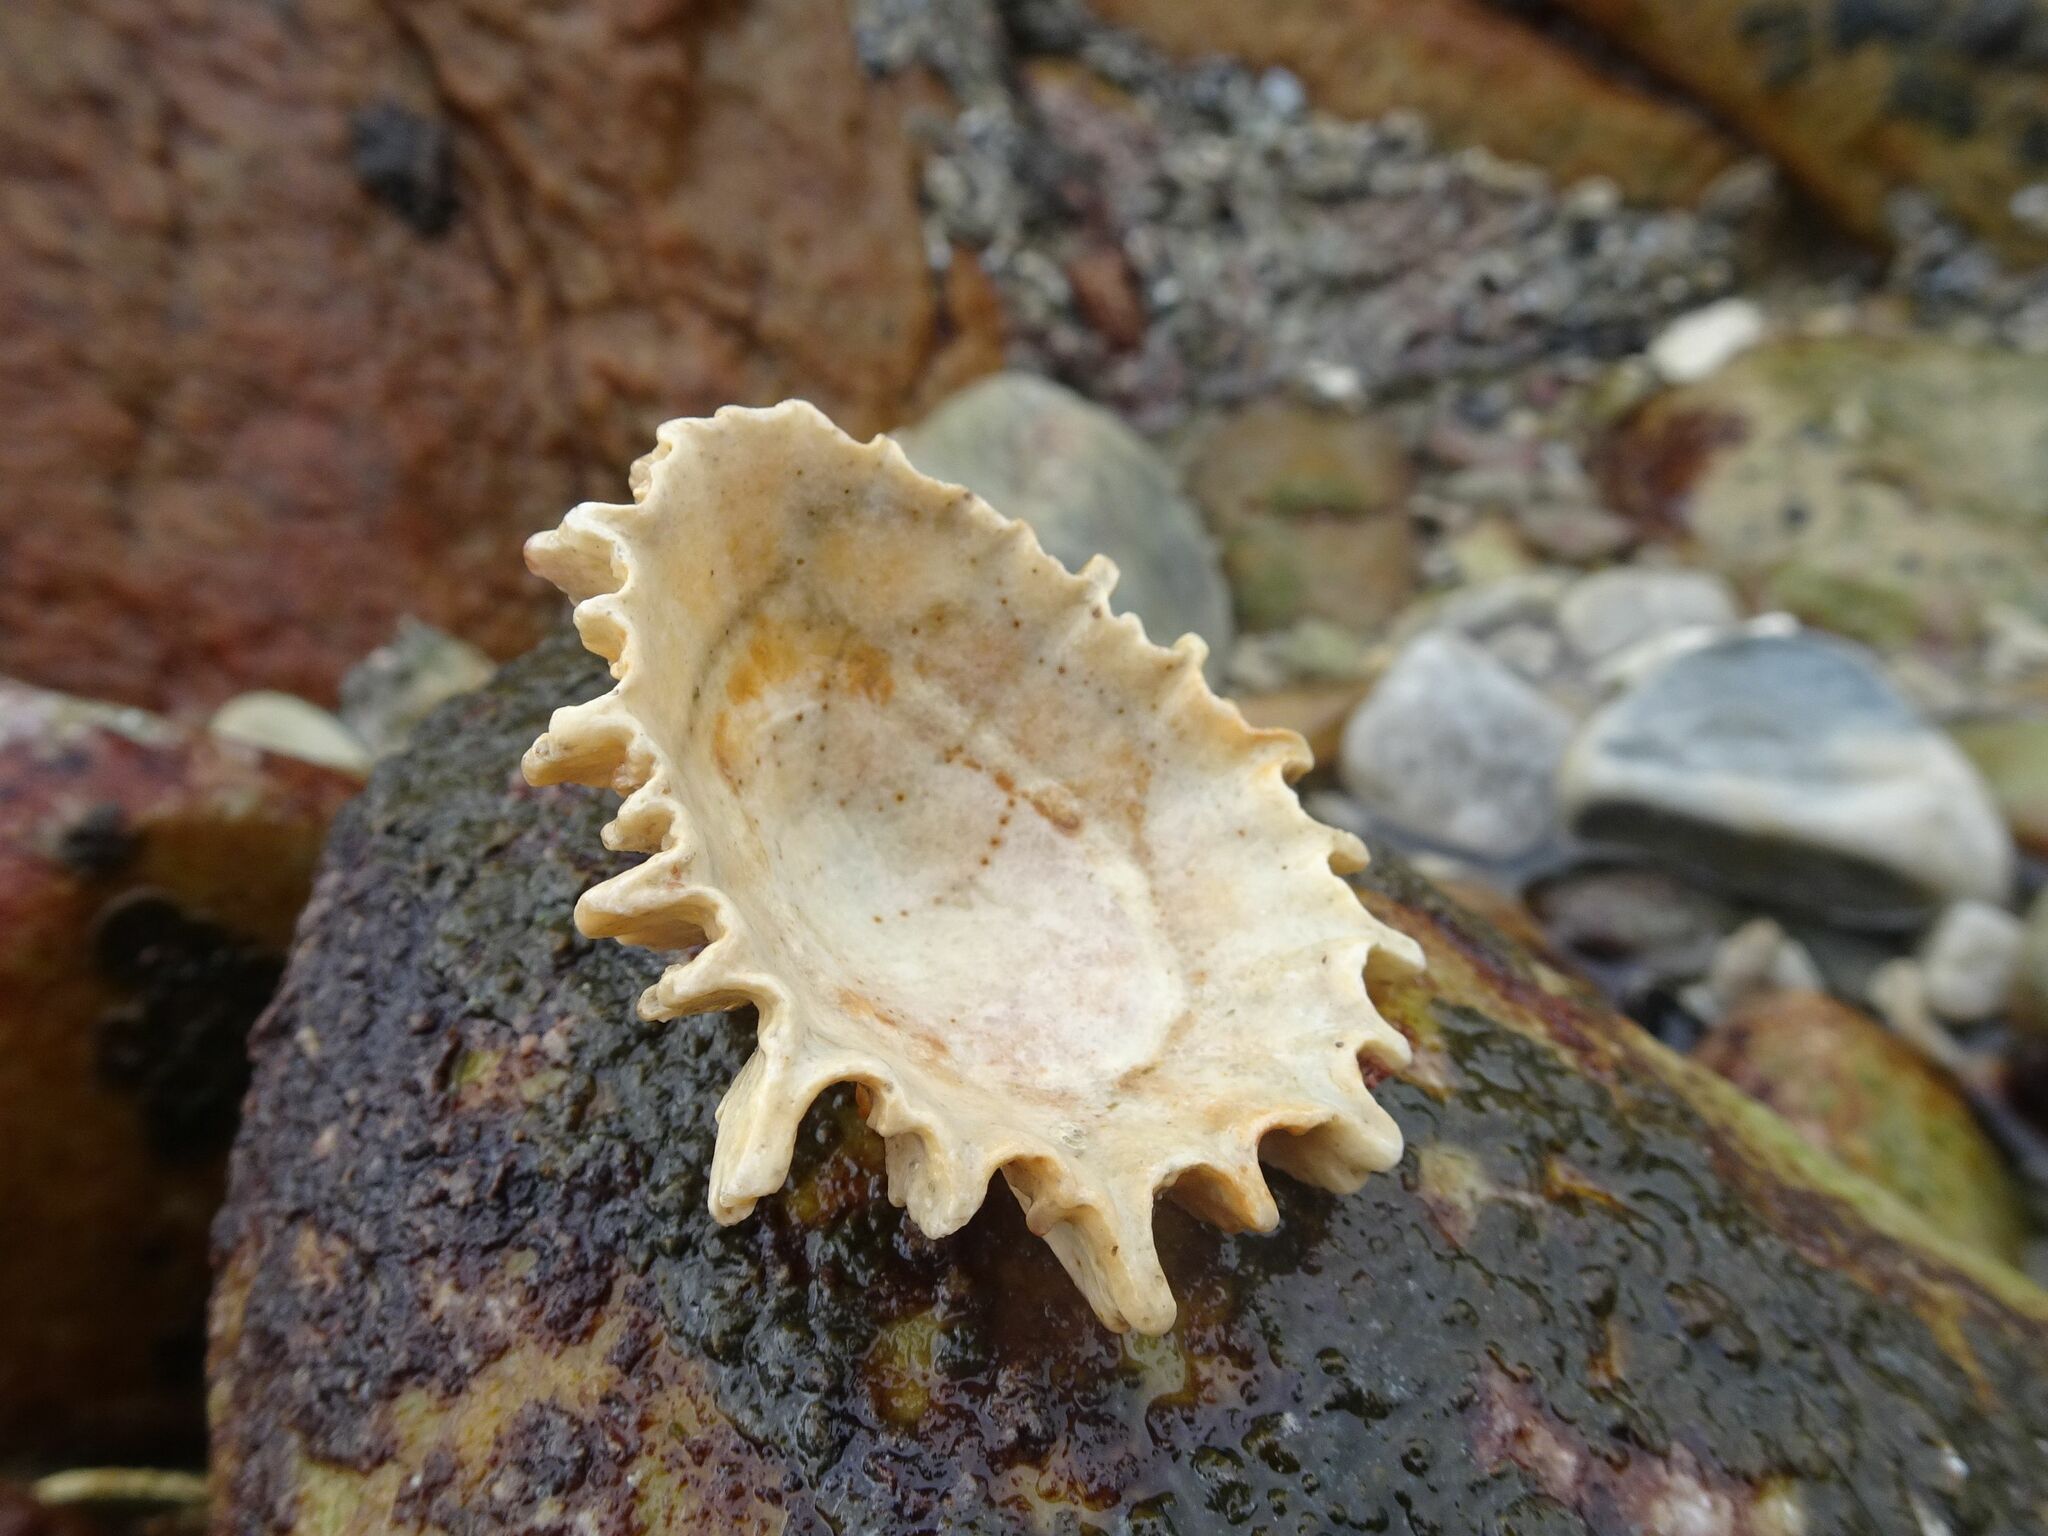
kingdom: Animalia
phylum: Mollusca
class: Gastropoda
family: Patellidae
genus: Scutellastra
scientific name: Scutellastra longicosta
